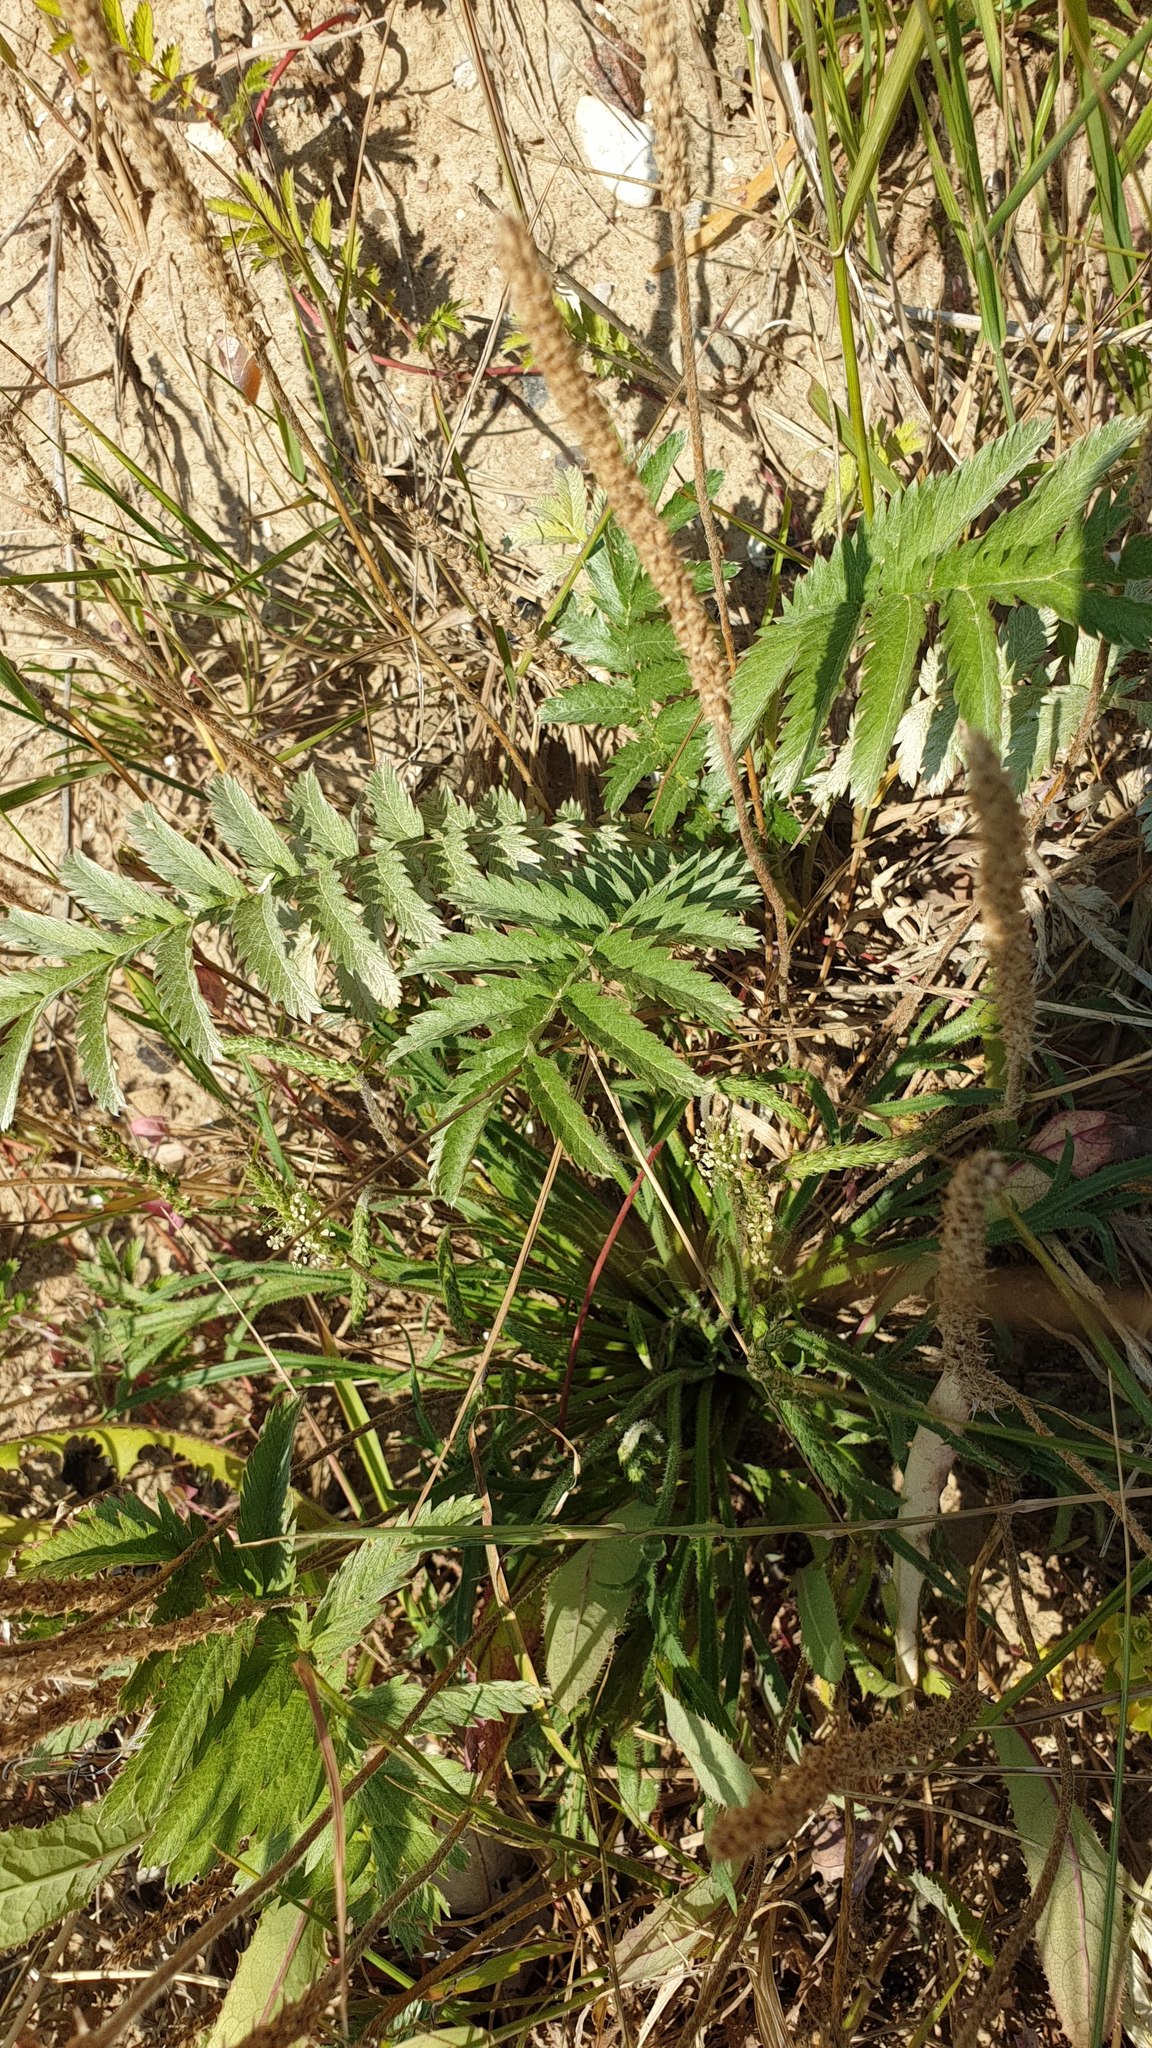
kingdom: Plantae
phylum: Tracheophyta
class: Magnoliopsida
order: Rosales
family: Rosaceae
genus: Argentina
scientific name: Argentina anserina
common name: Common silverweed
